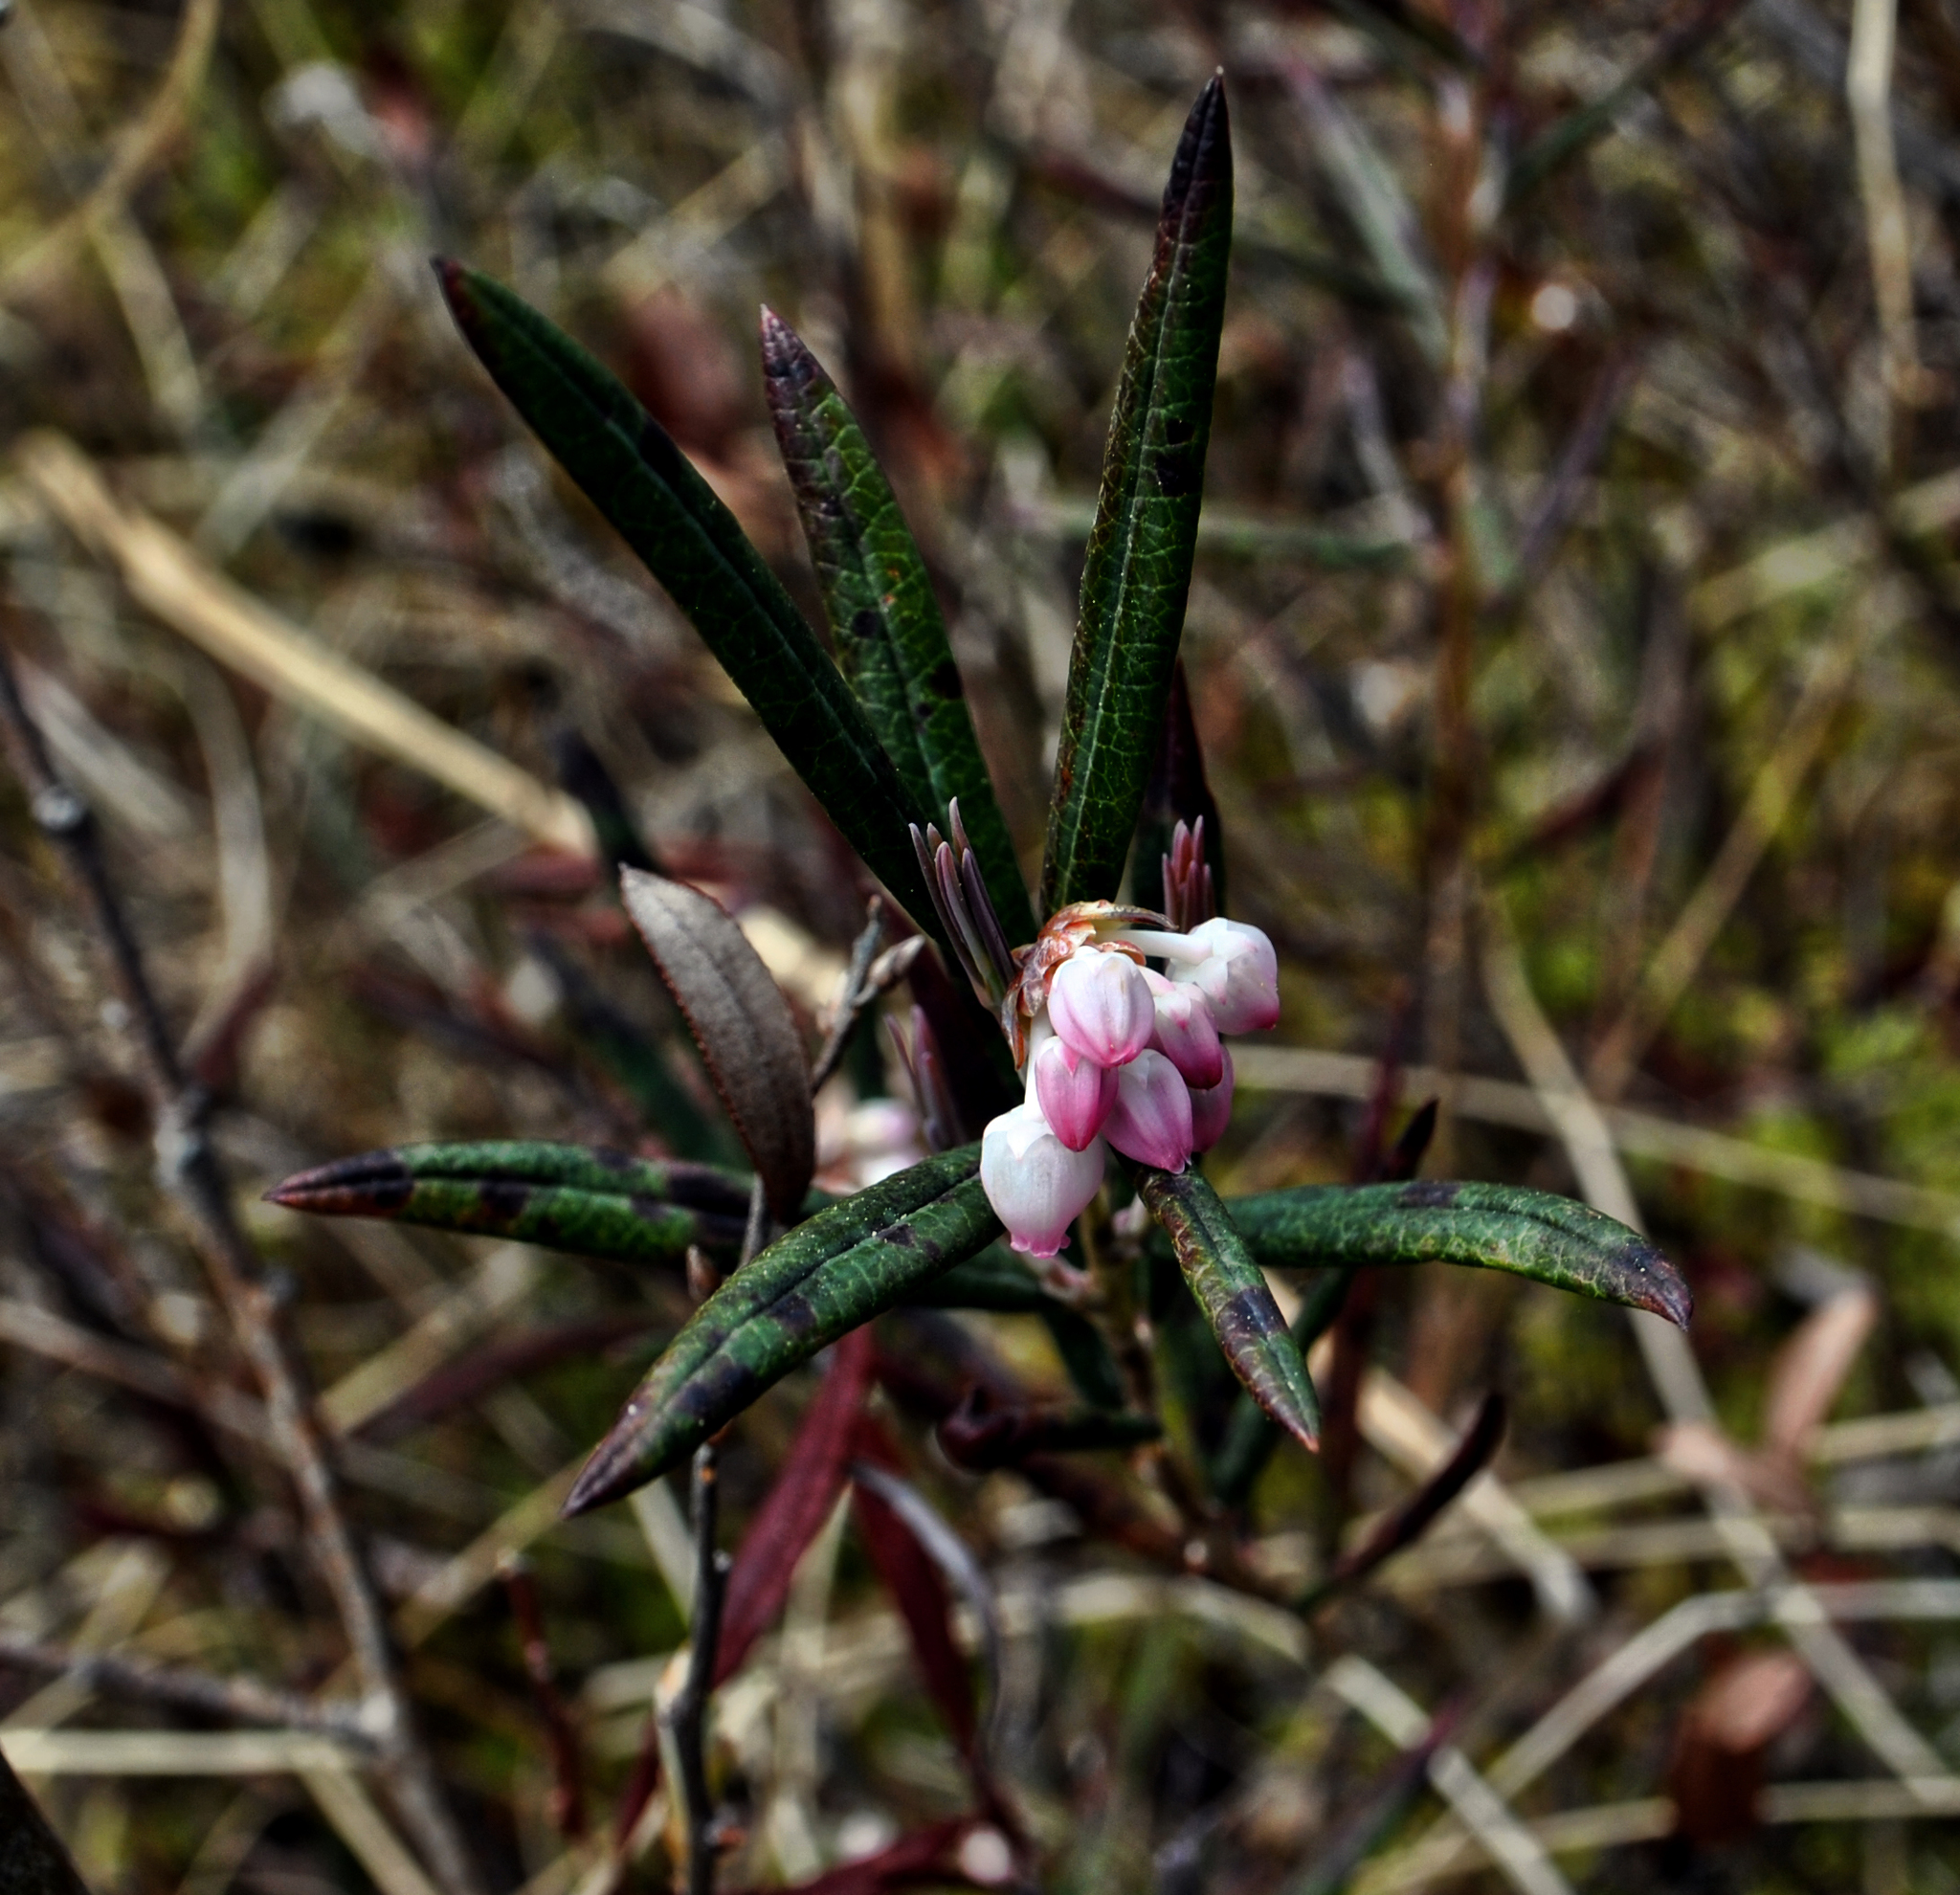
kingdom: Plantae
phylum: Tracheophyta
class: Magnoliopsida
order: Ericales
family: Ericaceae
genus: Andromeda
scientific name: Andromeda polifolia
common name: Bog-rosemary
